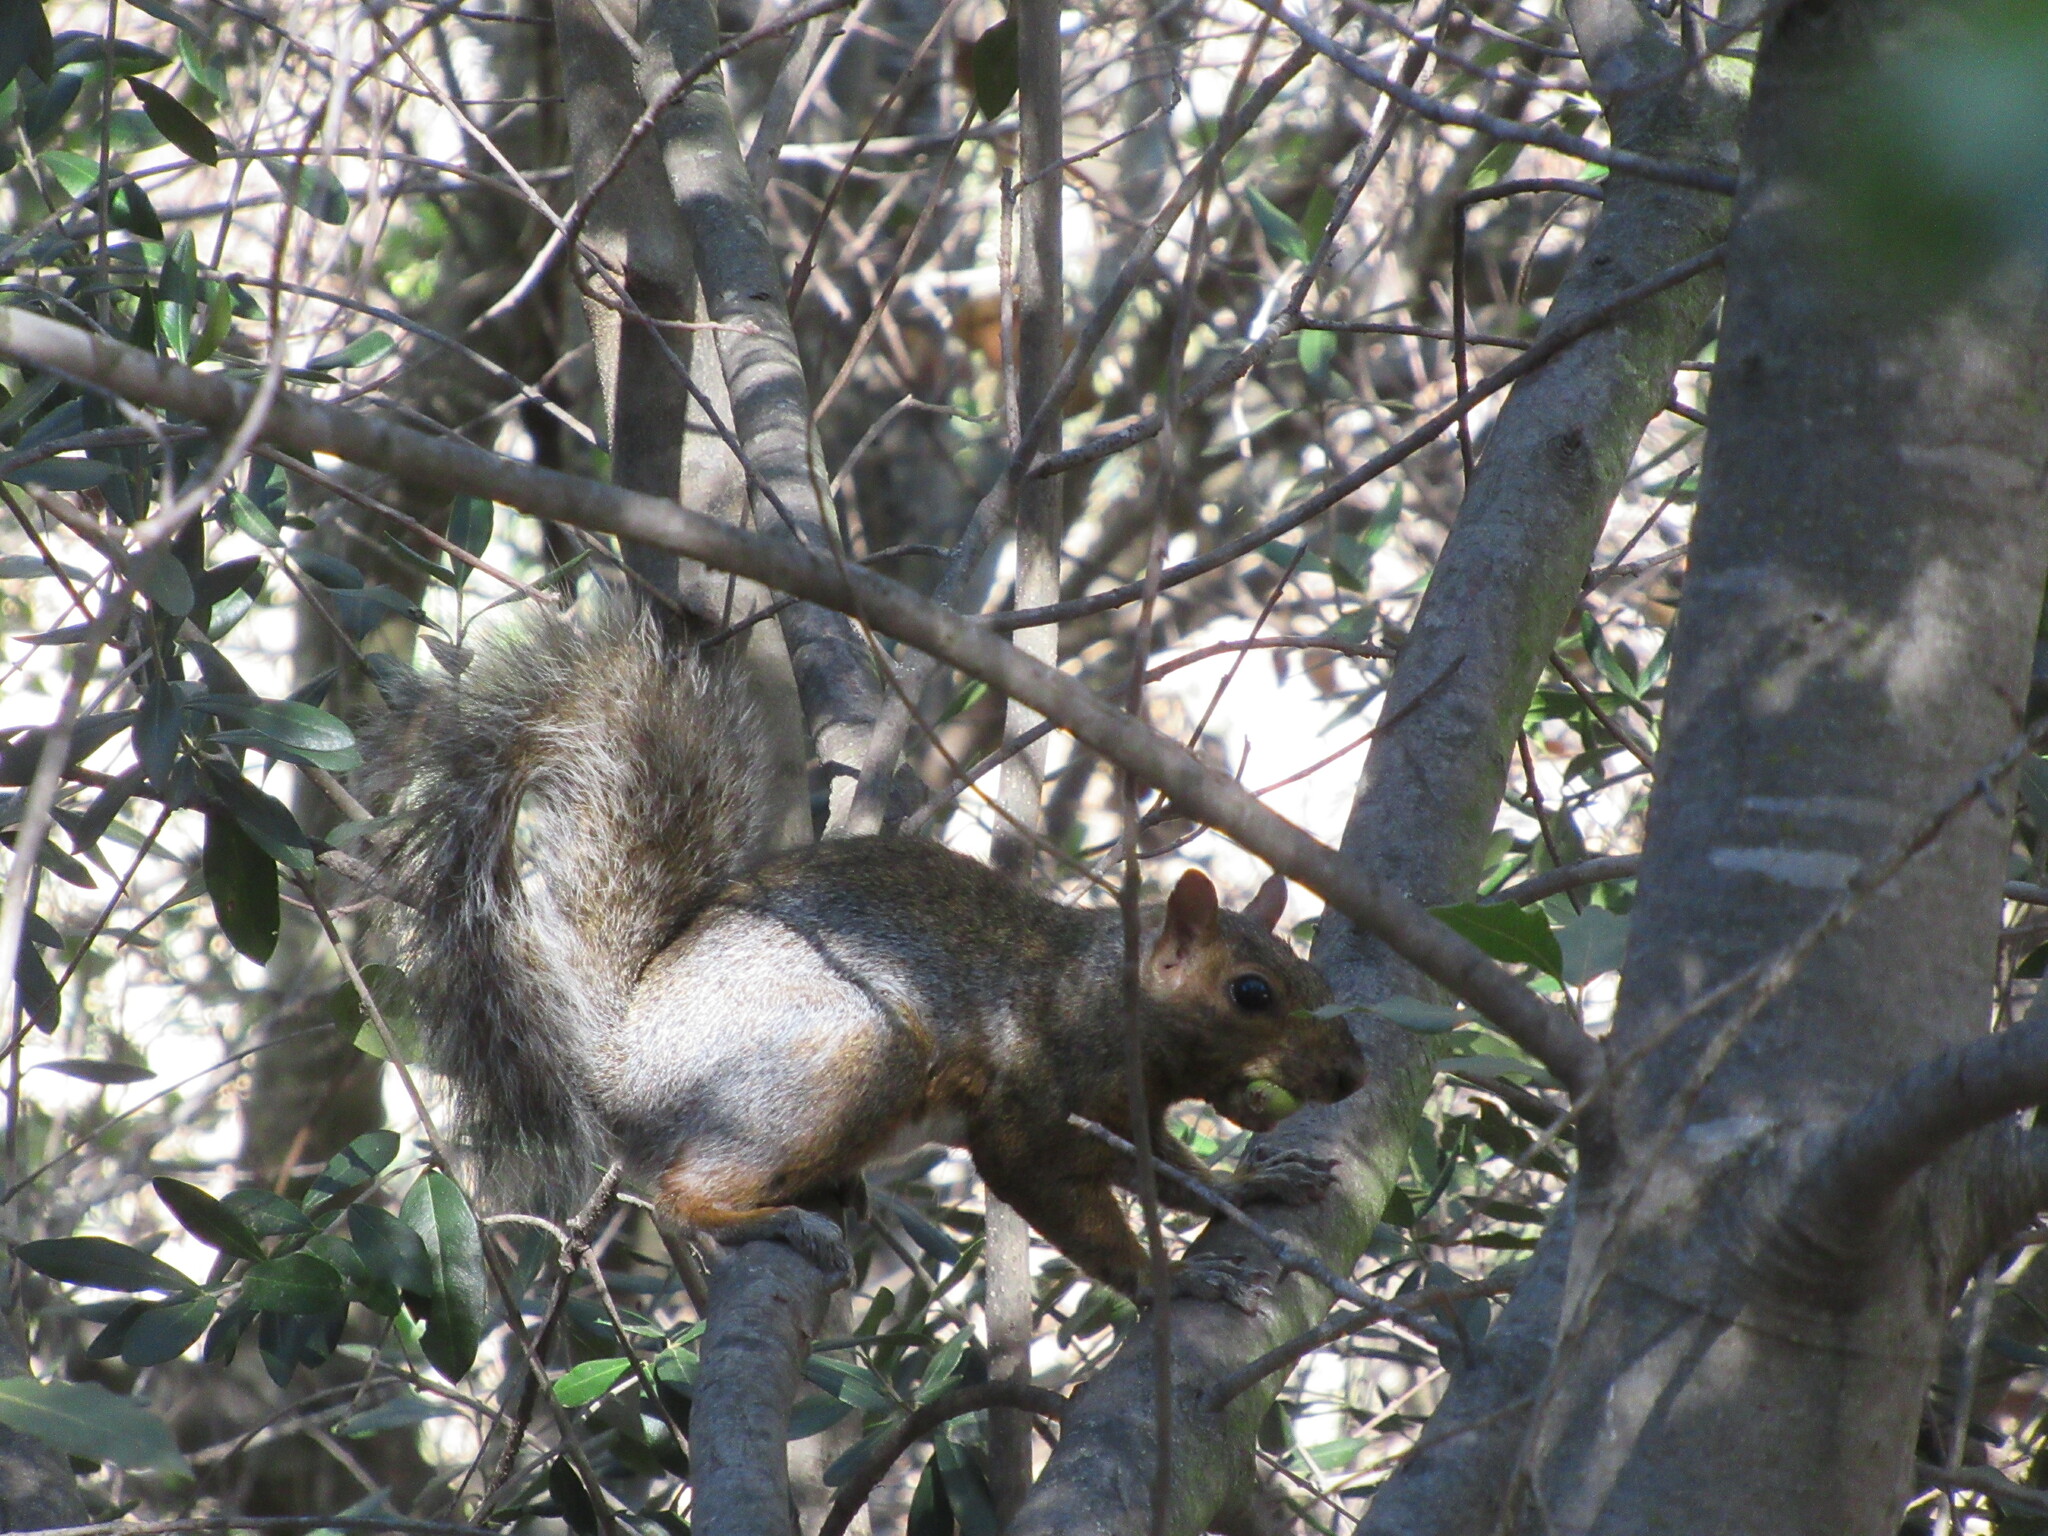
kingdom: Animalia
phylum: Chordata
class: Mammalia
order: Rodentia
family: Sciuridae
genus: Sciurus
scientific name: Sciurus carolinensis
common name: Eastern gray squirrel
